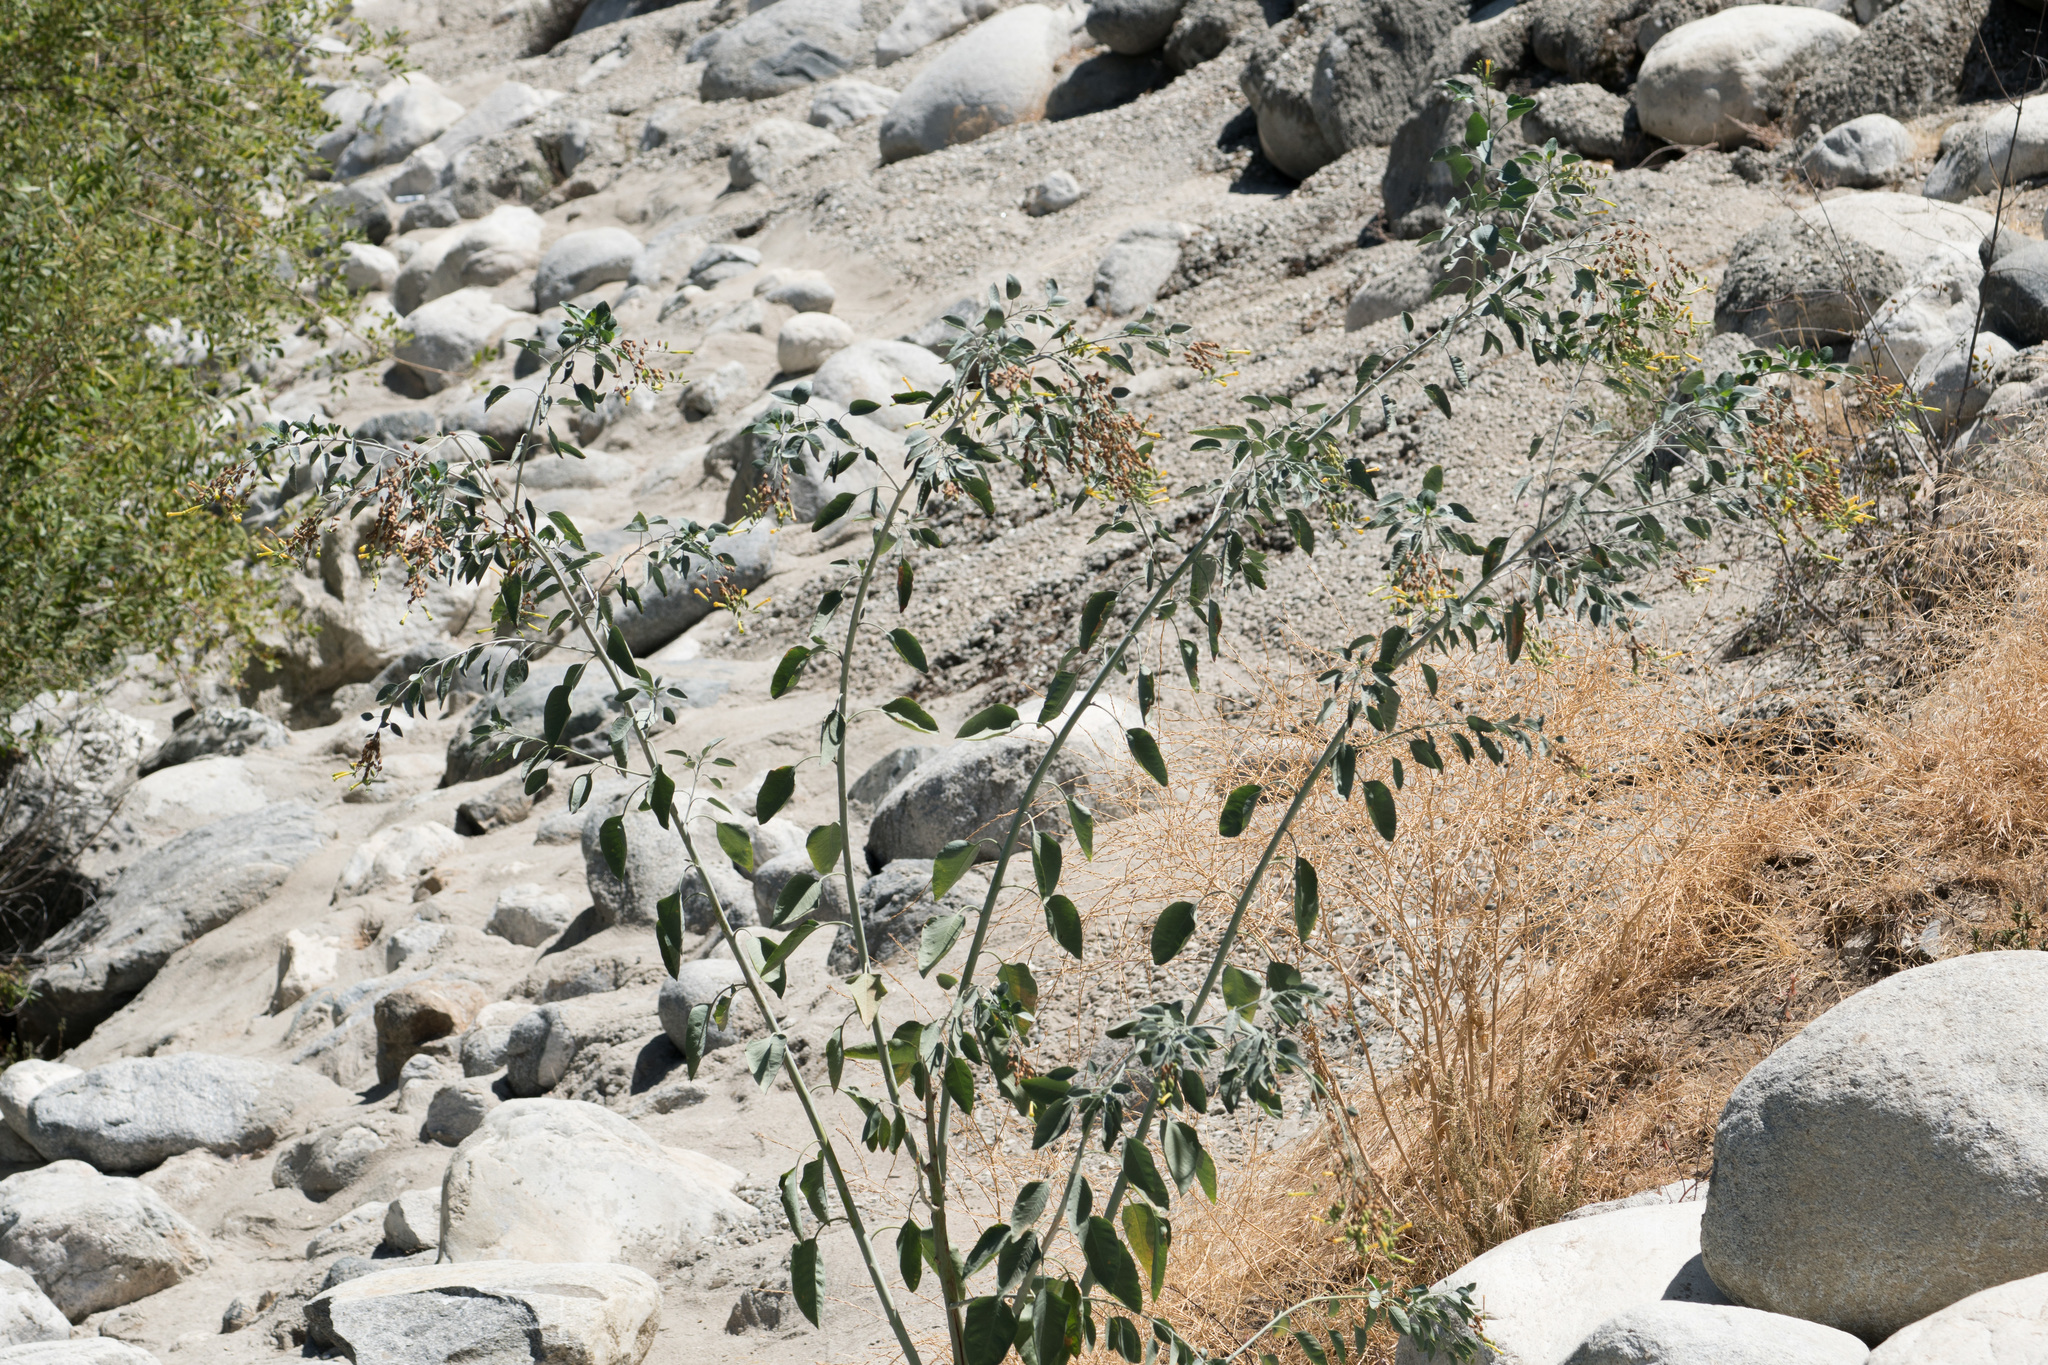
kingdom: Plantae
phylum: Tracheophyta
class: Magnoliopsida
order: Solanales
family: Solanaceae
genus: Nicotiana
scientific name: Nicotiana glauca
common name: Tree tobacco
